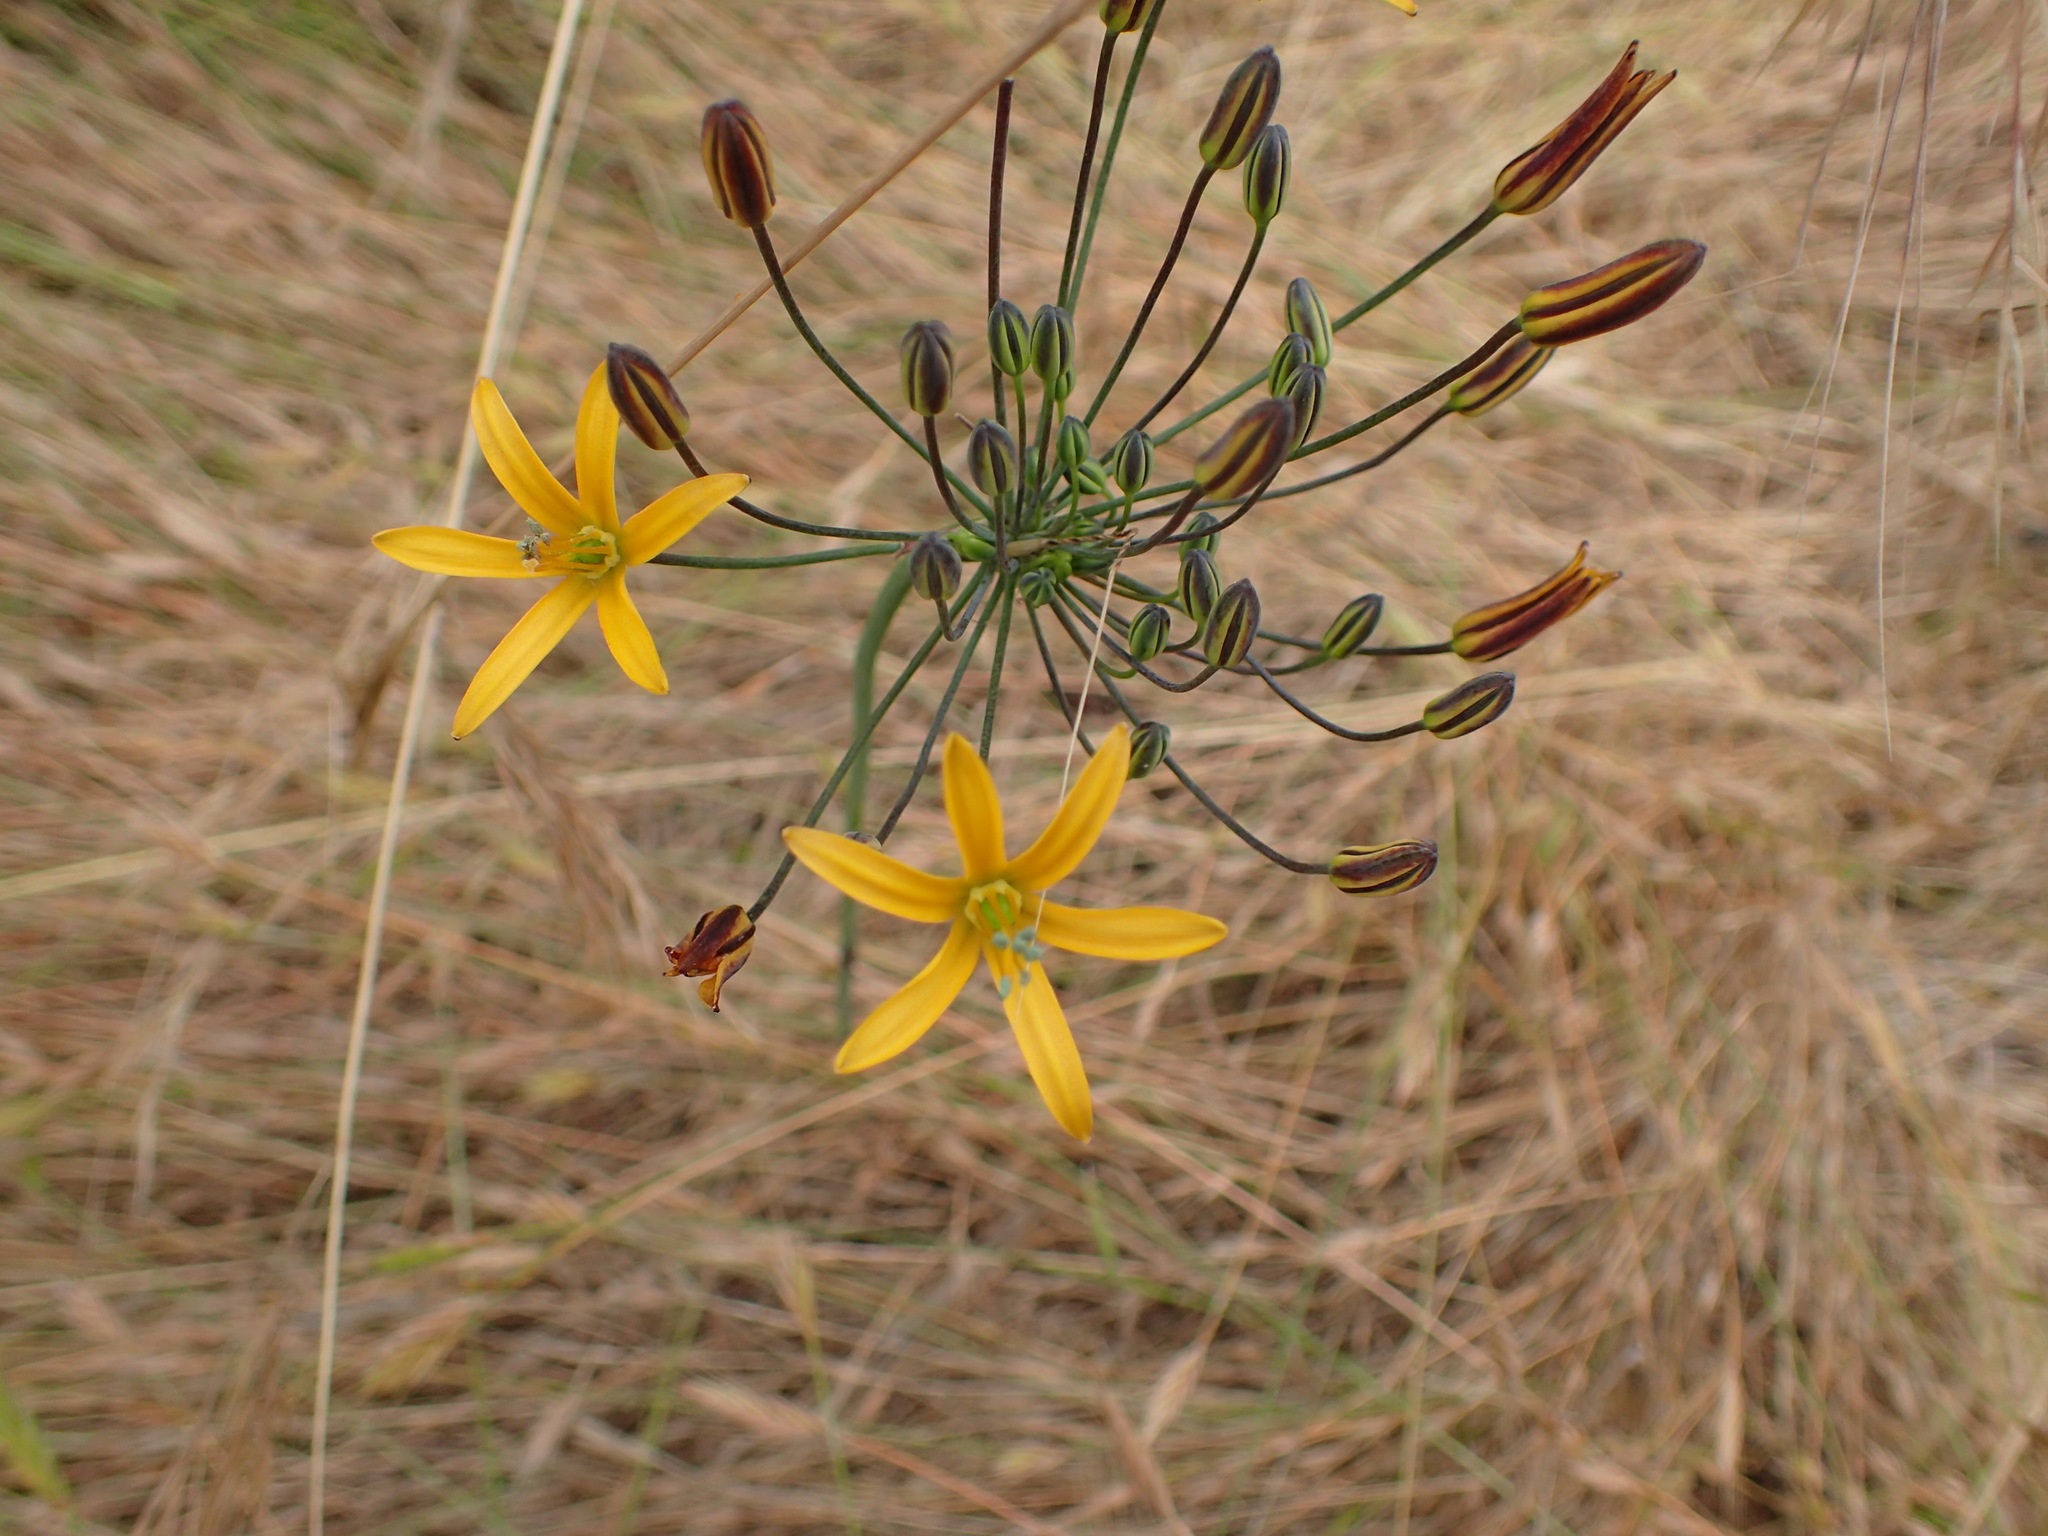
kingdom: Plantae
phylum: Tracheophyta
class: Liliopsida
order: Asparagales
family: Asparagaceae
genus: Bloomeria
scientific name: Bloomeria crocea
